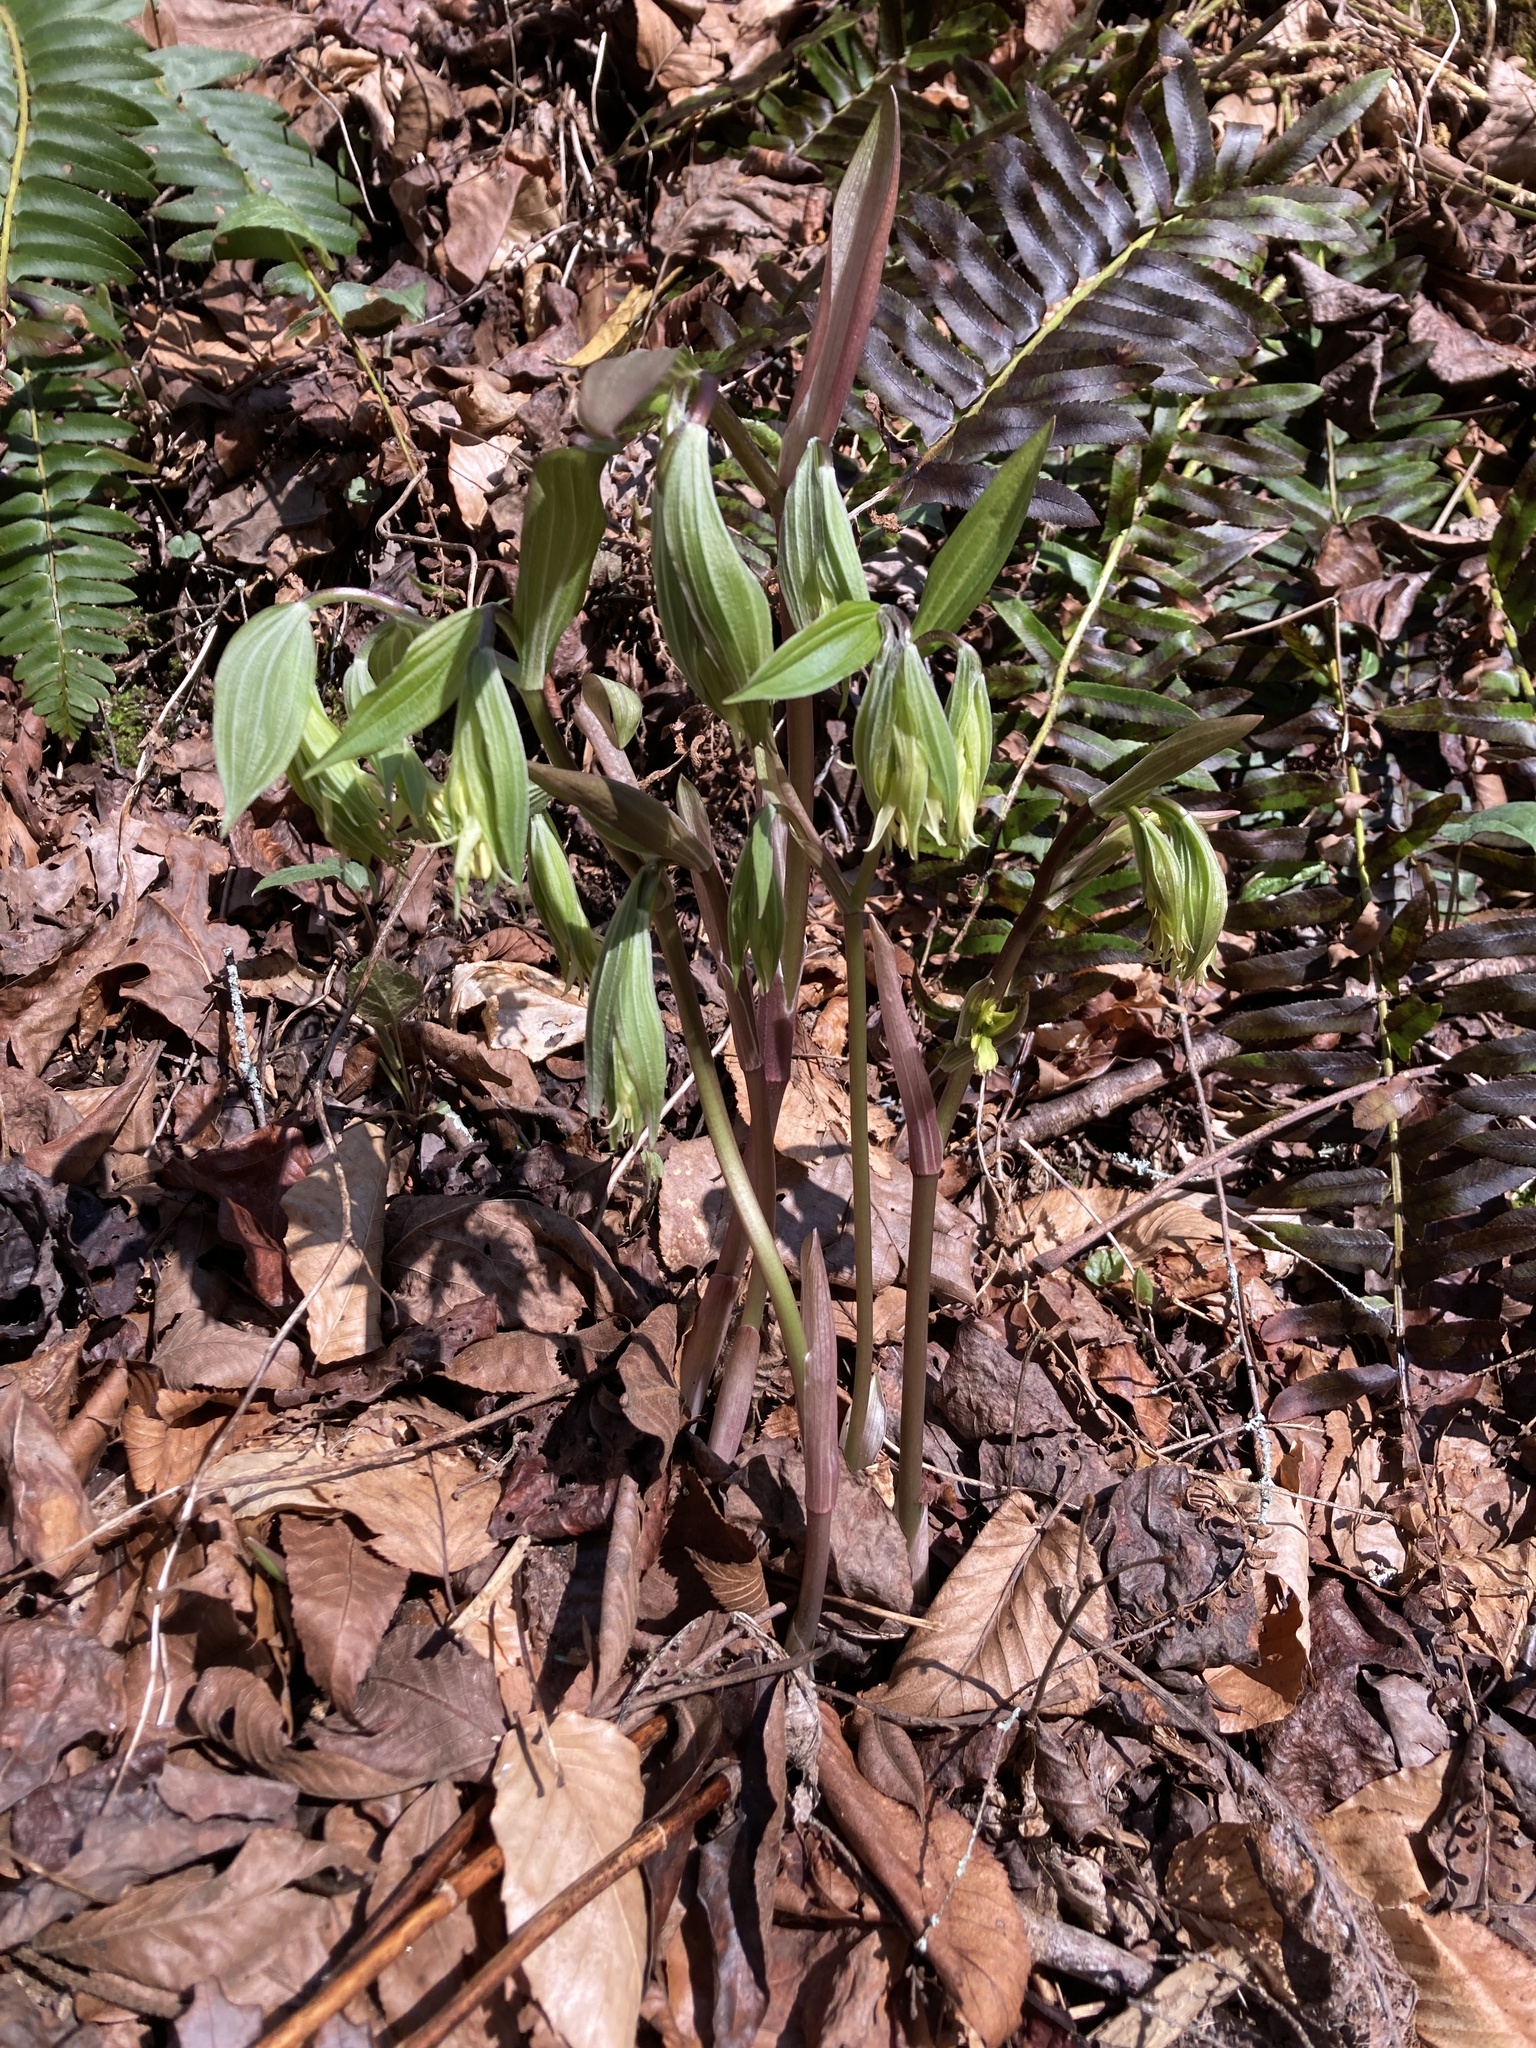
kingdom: Plantae
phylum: Tracheophyta
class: Liliopsida
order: Liliales
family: Liliaceae
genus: Prosartes
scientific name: Prosartes lanuginosa
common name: Hairy mandarin
